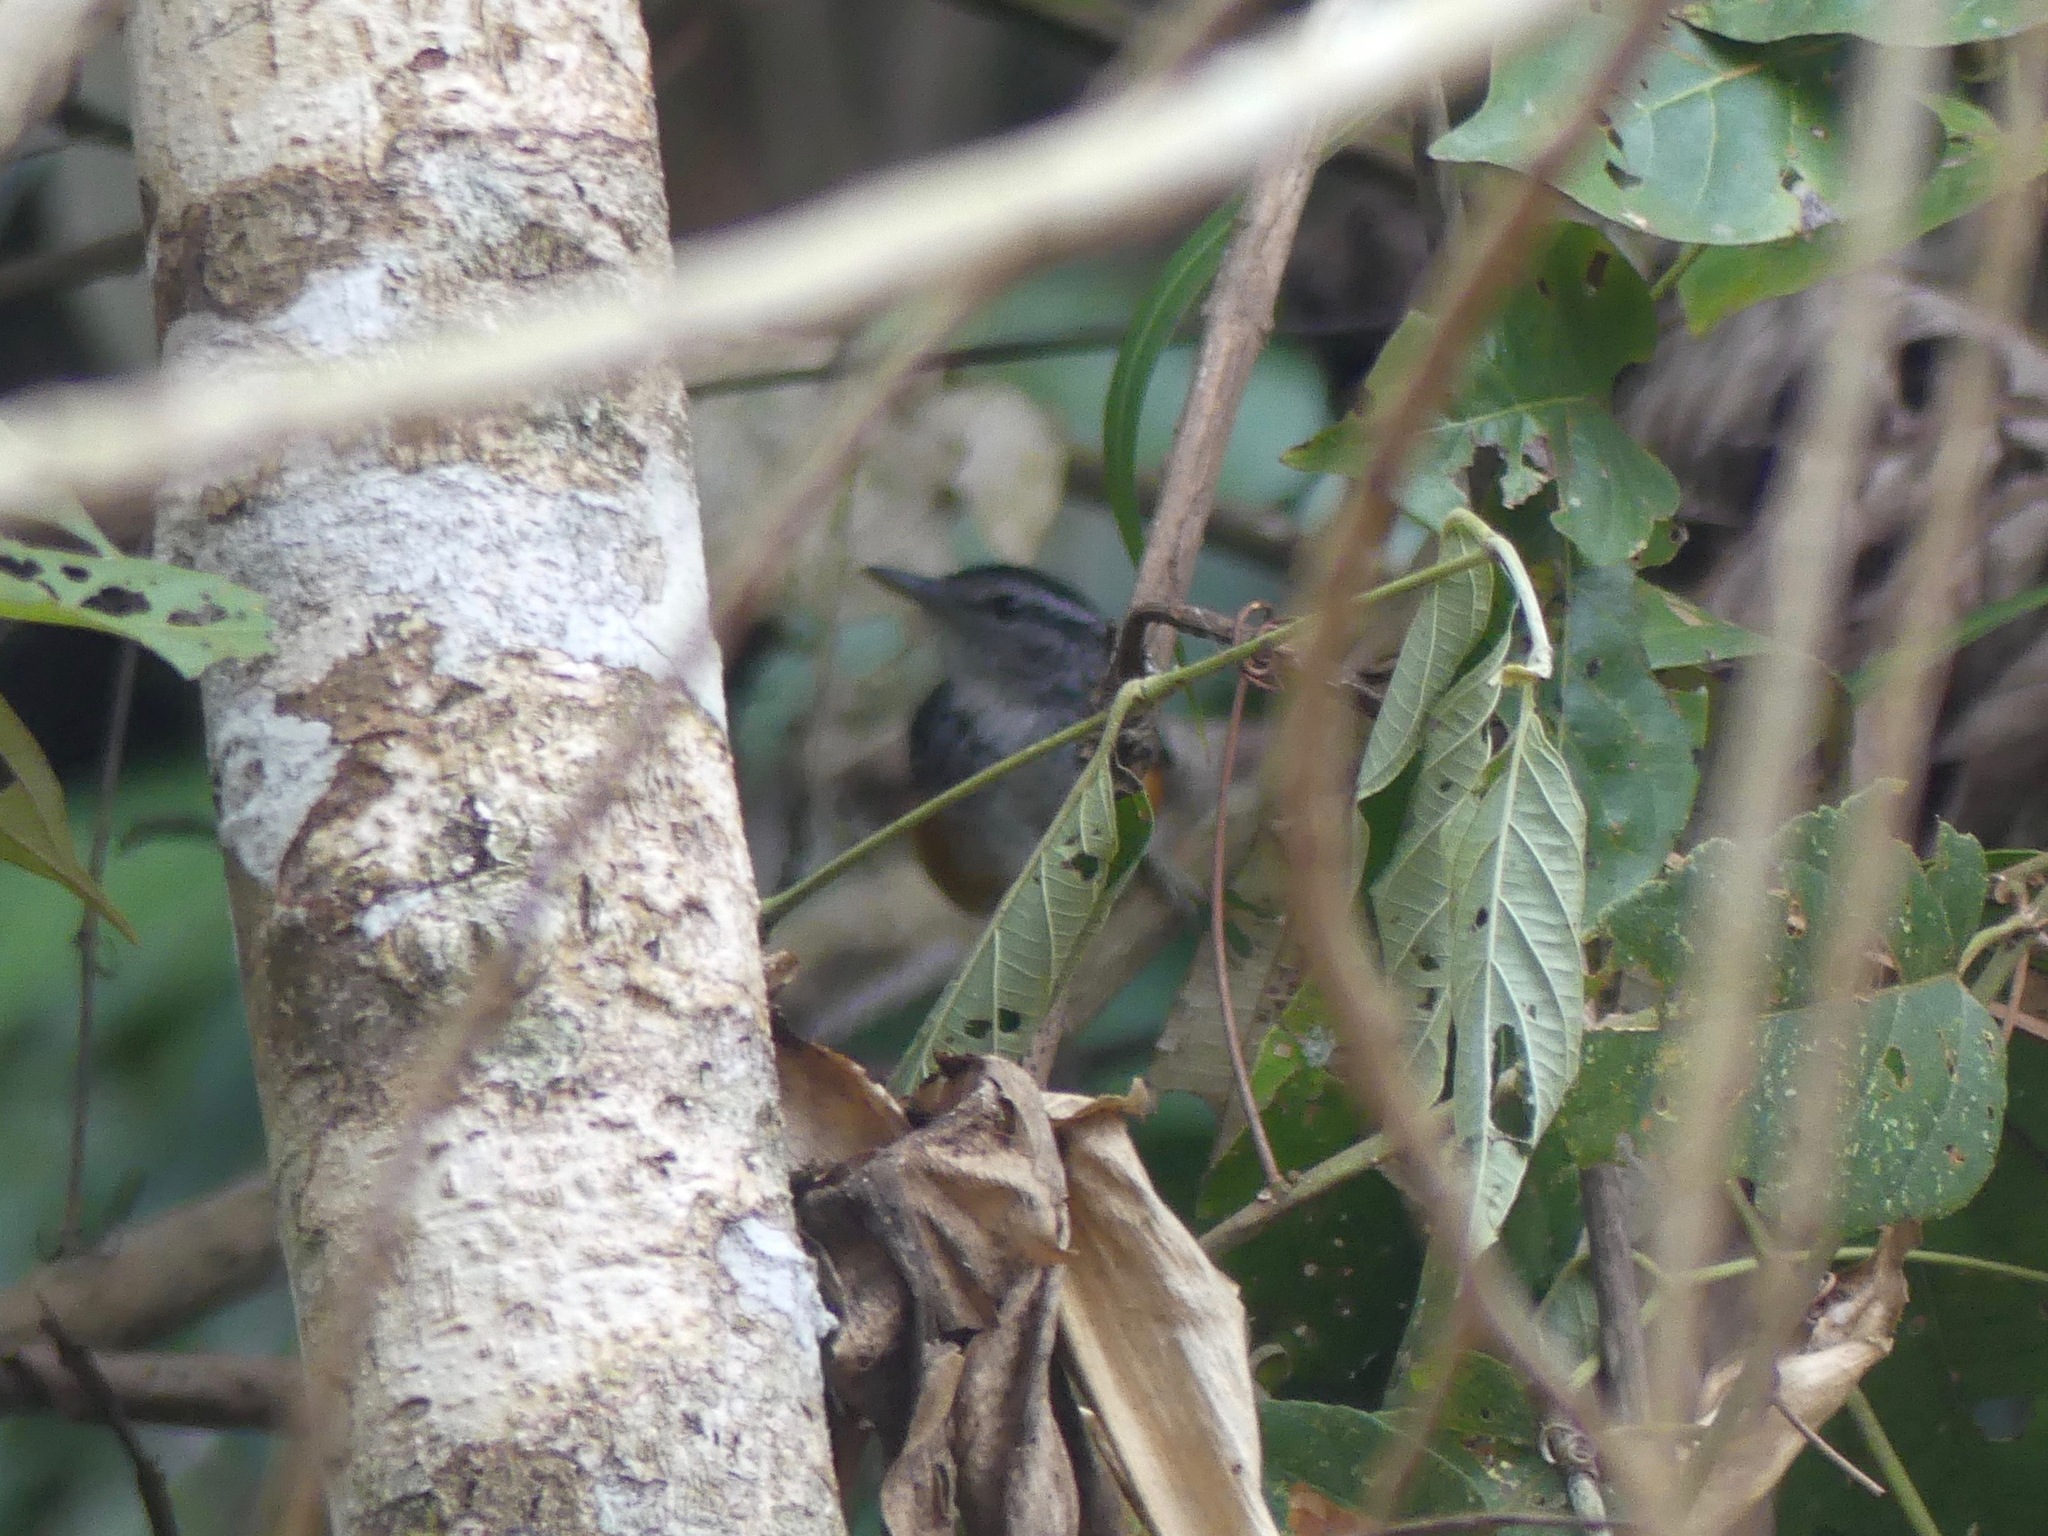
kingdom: Animalia
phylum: Chordata
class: Aves
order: Passeriformes
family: Thamnophilidae
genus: Hypocnemis
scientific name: Hypocnemis peruviana
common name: Peruvian warbling-antbird
